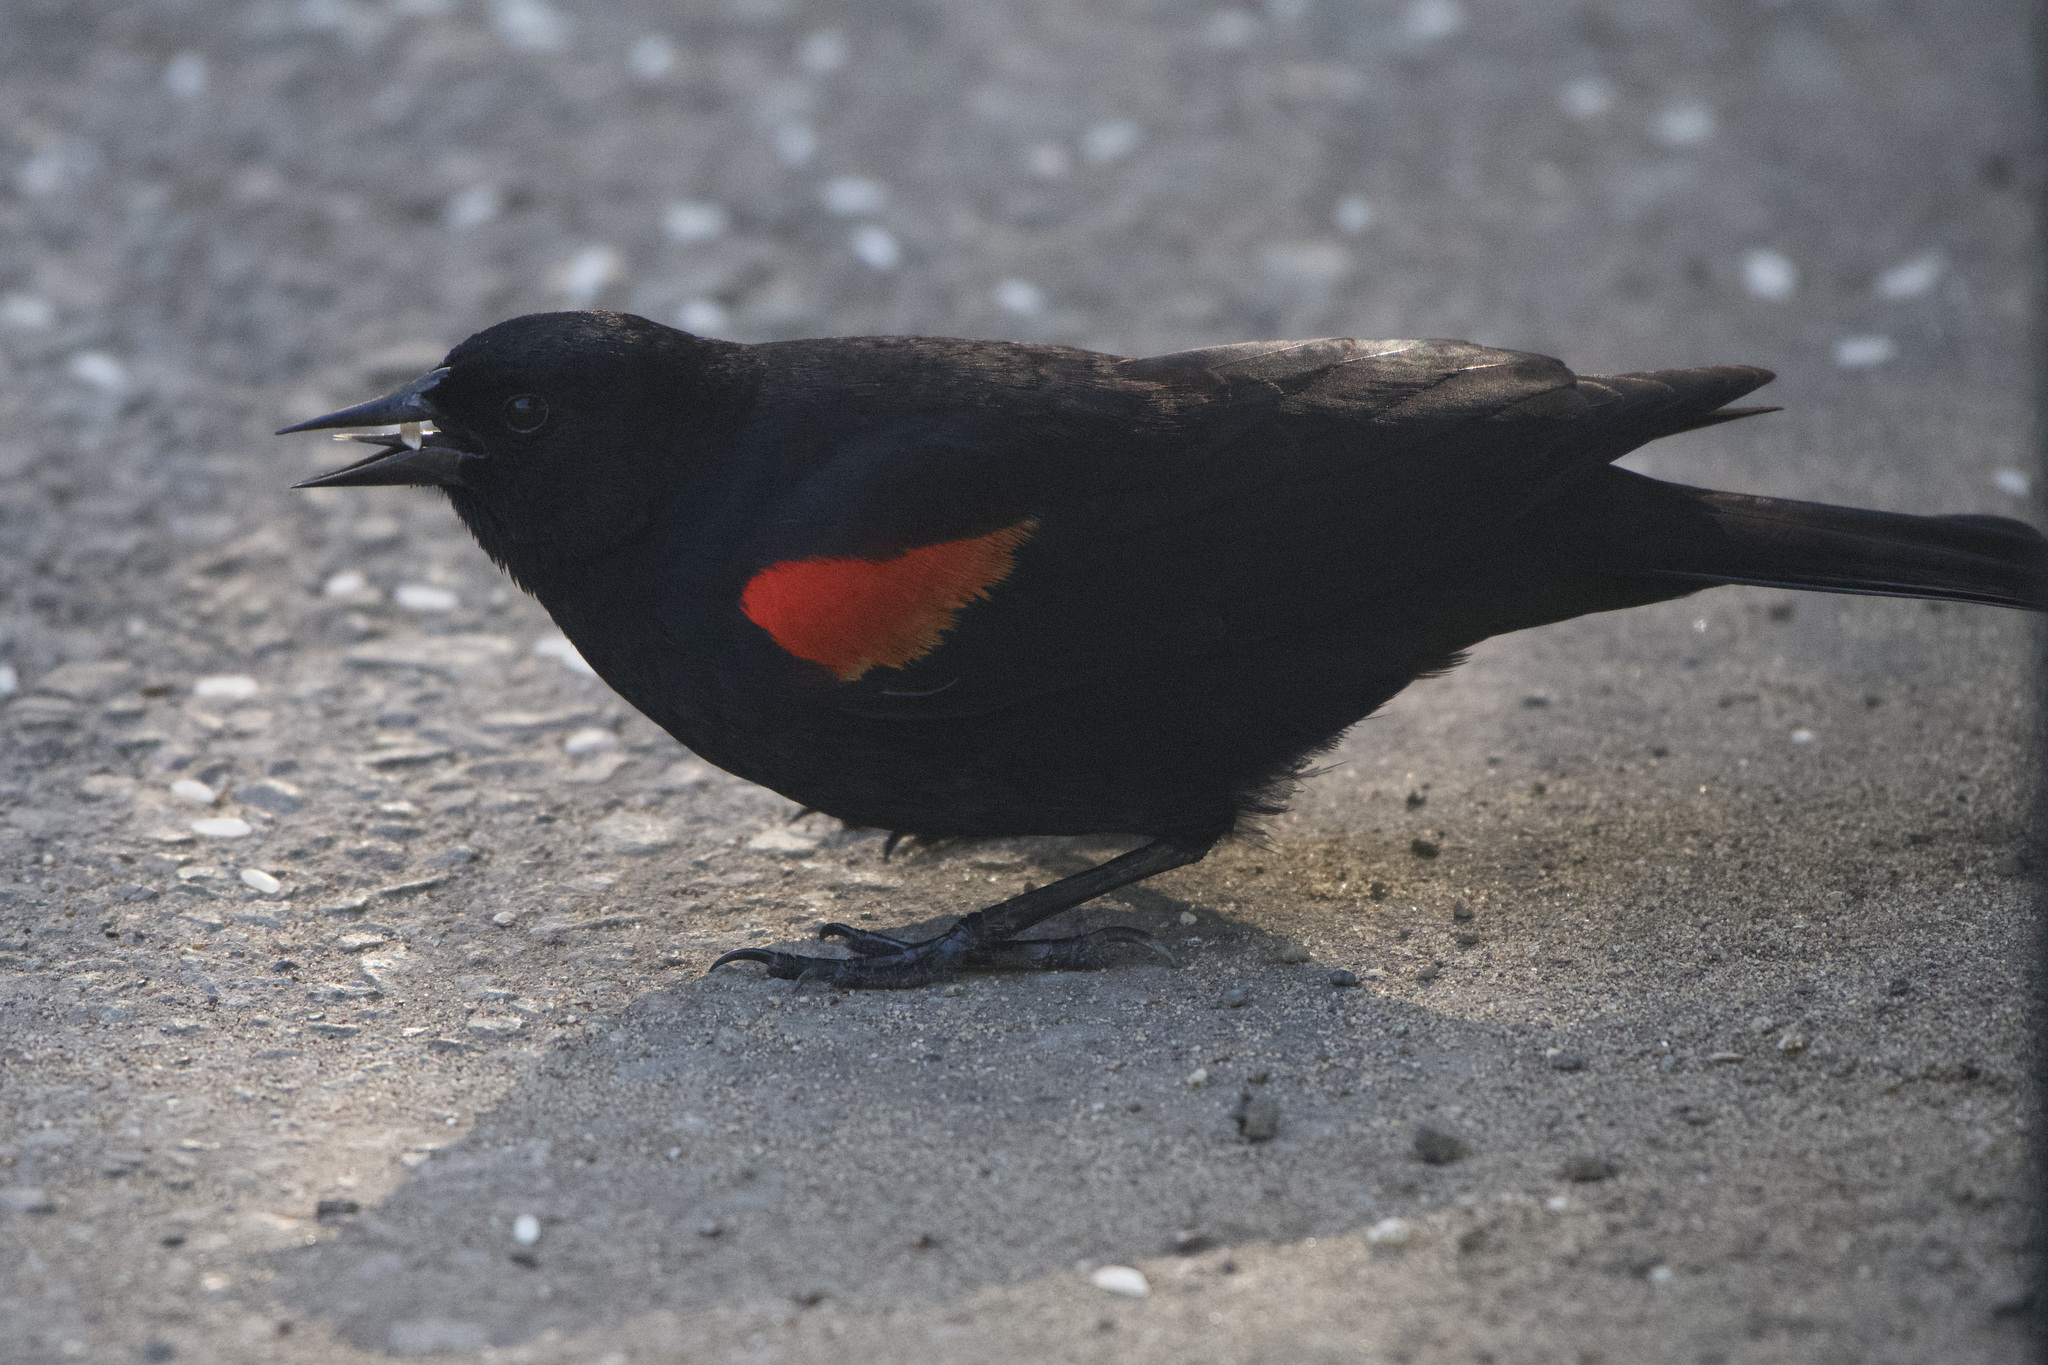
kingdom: Animalia
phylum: Chordata
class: Aves
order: Passeriformes
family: Icteridae
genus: Agelaius
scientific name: Agelaius phoeniceus
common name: Red-winged blackbird
